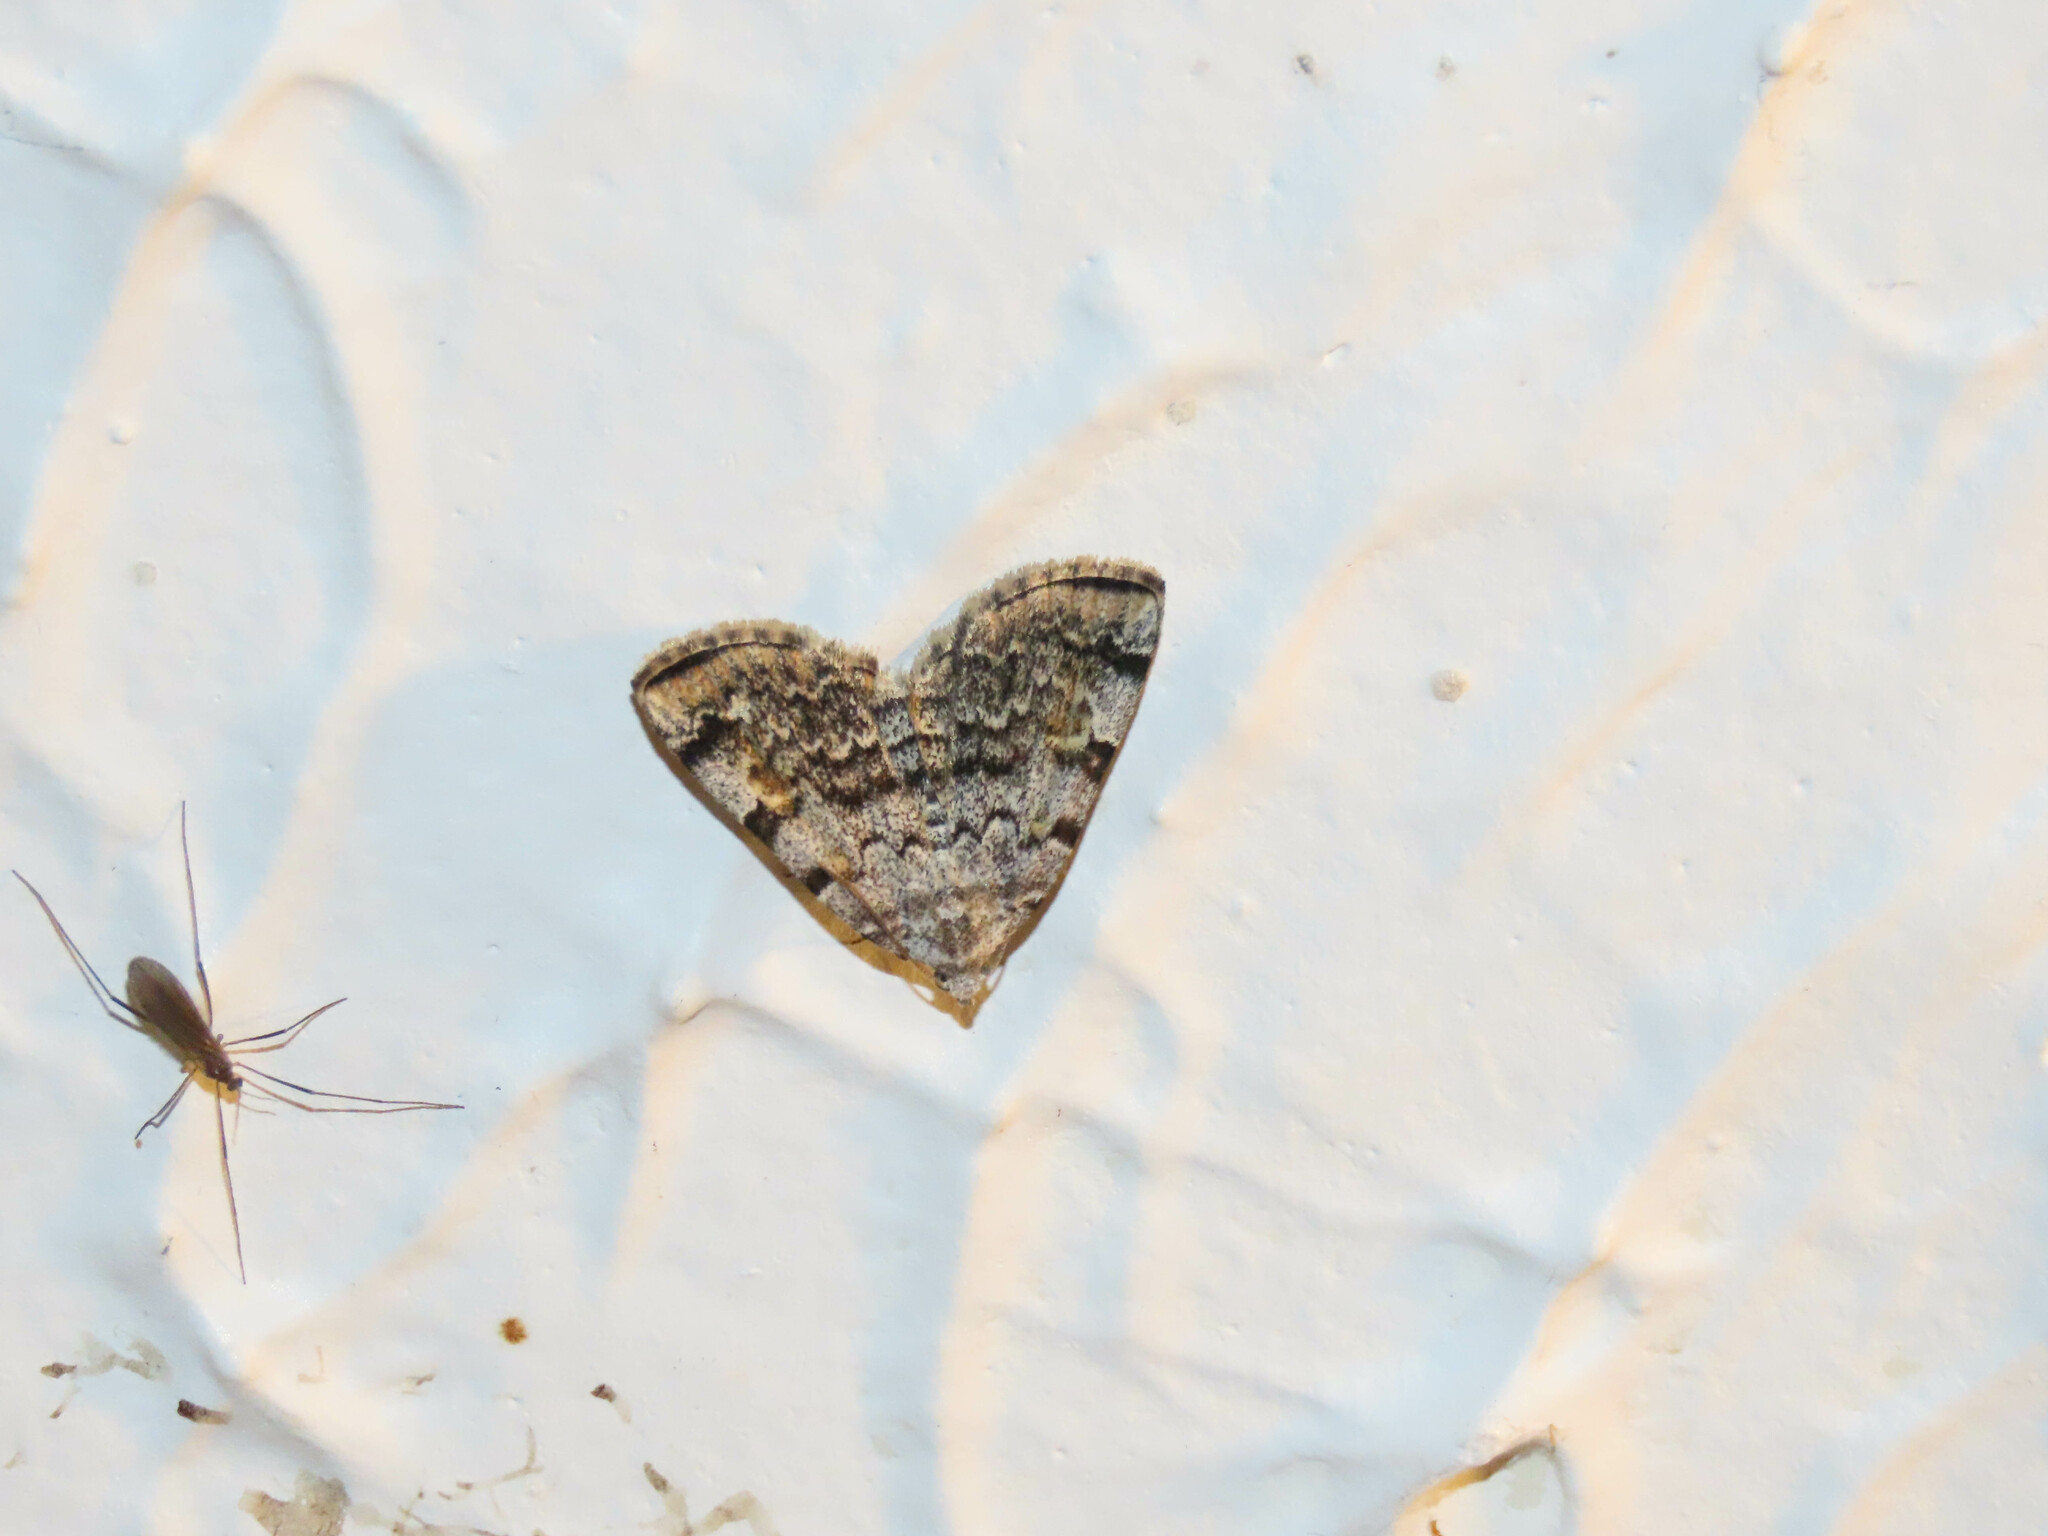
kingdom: Animalia
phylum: Arthropoda
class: Insecta
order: Lepidoptera
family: Erebidae
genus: Idia
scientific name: Idia americalis
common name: American idia moth
